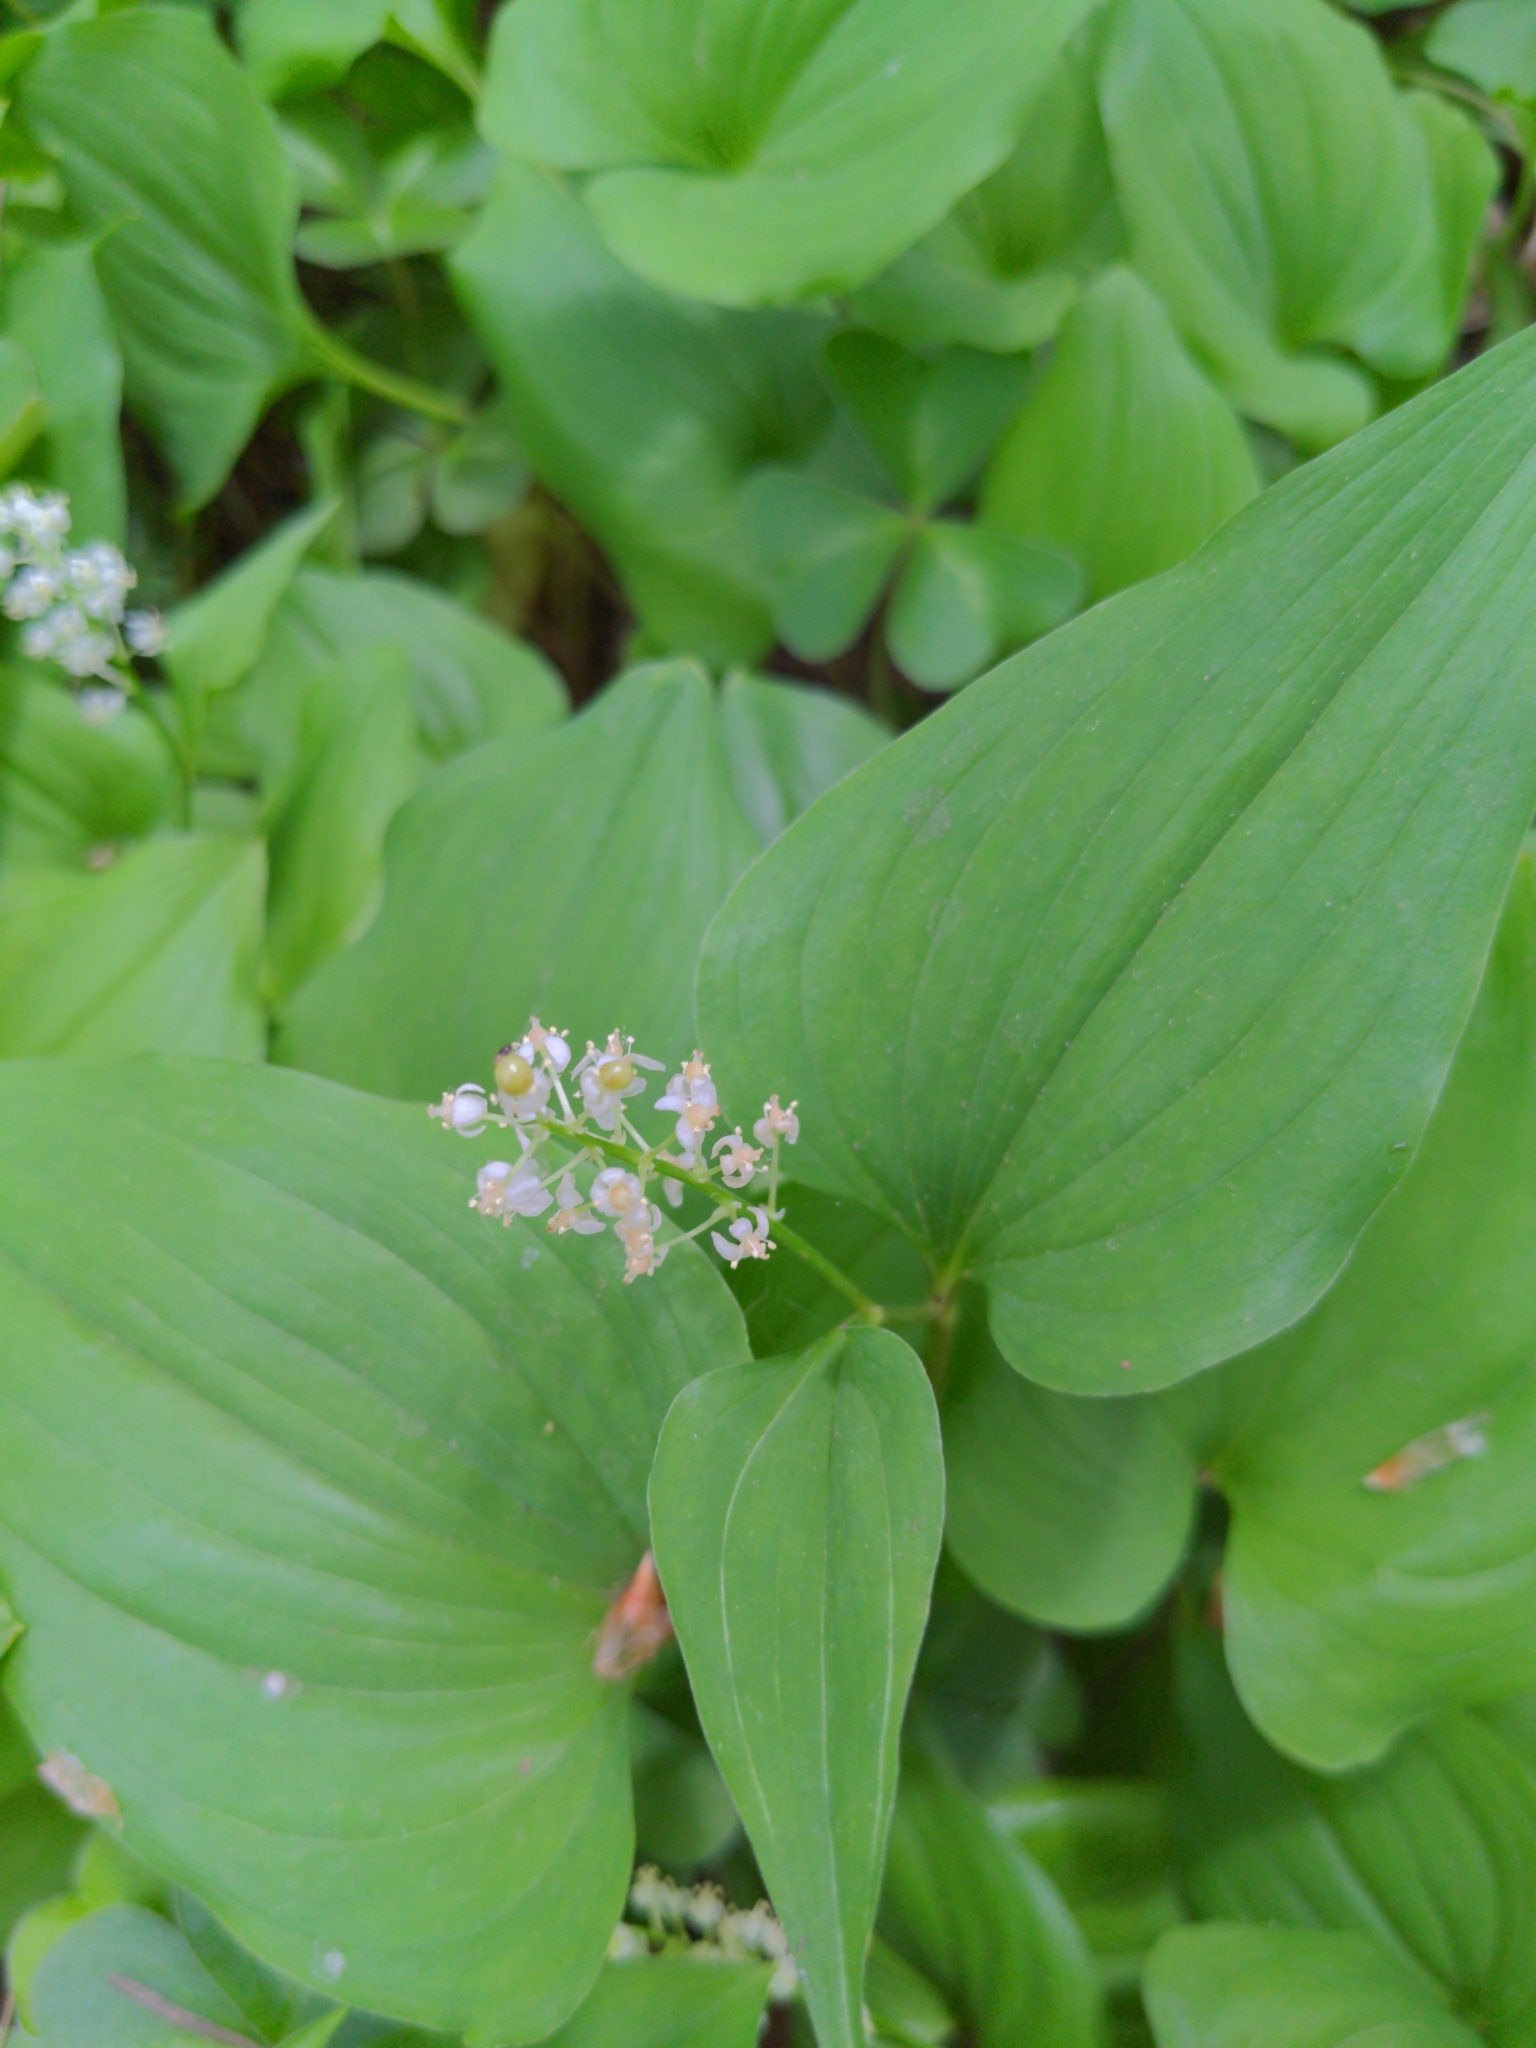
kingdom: Plantae
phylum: Tracheophyta
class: Liliopsida
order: Asparagales
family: Asparagaceae
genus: Maianthemum
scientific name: Maianthemum dilatatum
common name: False lily-of-the-valley
